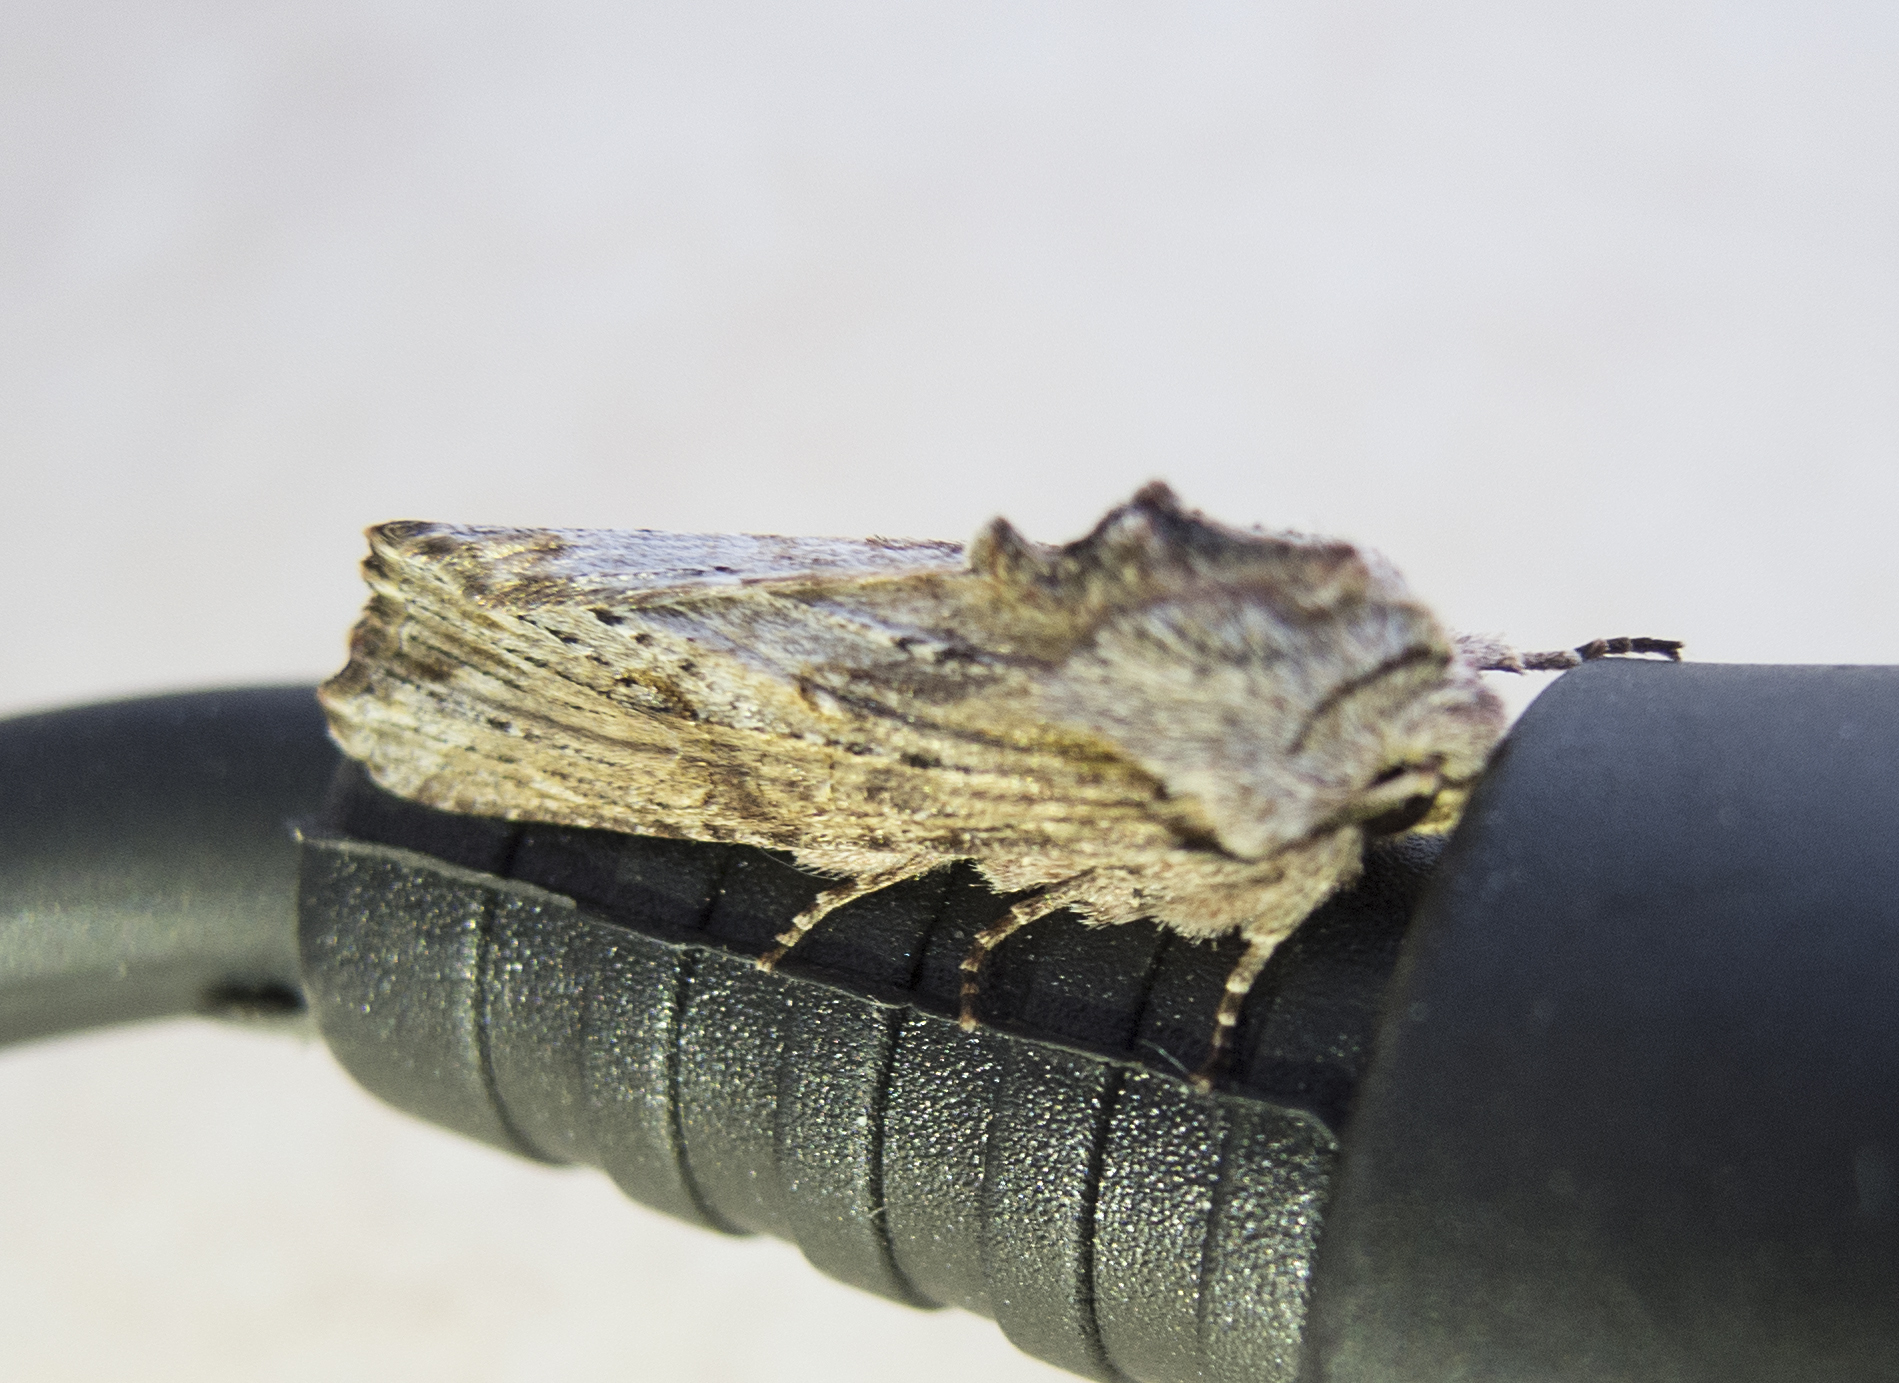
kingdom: Animalia
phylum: Arthropoda
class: Insecta
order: Lepidoptera
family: Noctuidae
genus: Egira
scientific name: Egira
